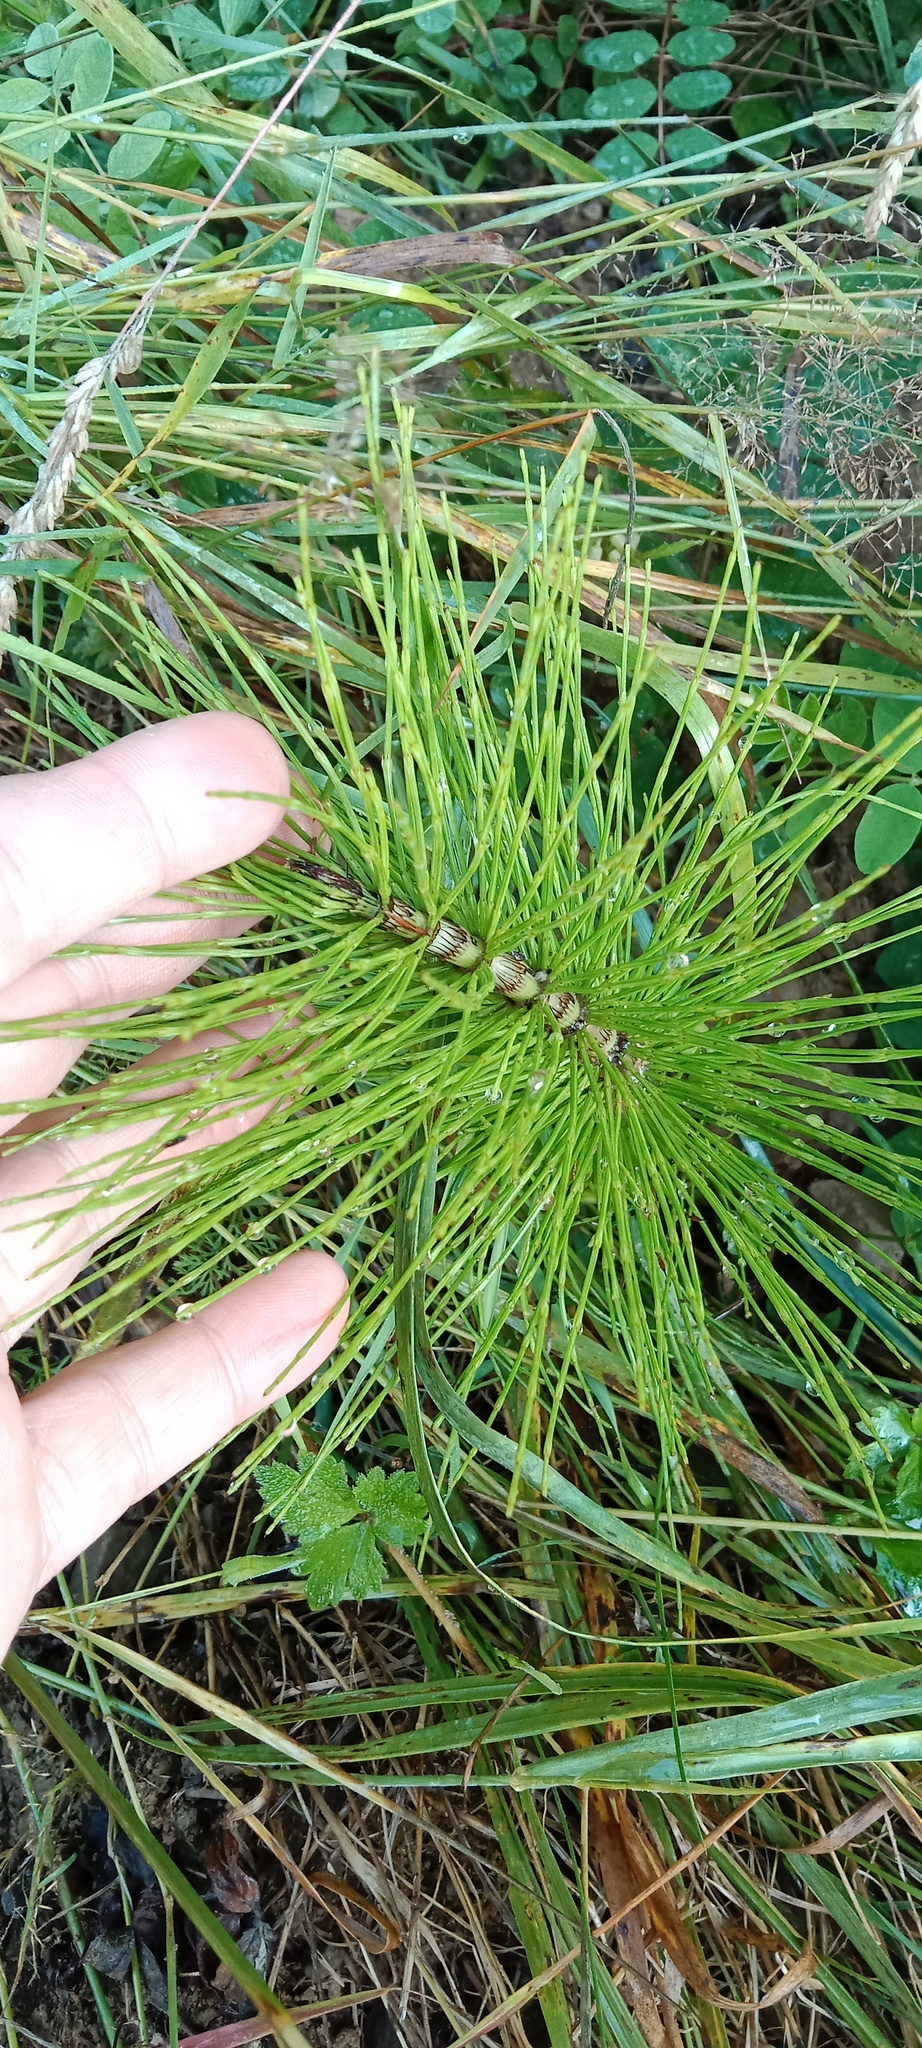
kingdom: Plantae
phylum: Tracheophyta
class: Polypodiopsida
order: Equisetales
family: Equisetaceae
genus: Equisetum
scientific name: Equisetum telmateia
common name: Great horsetail
